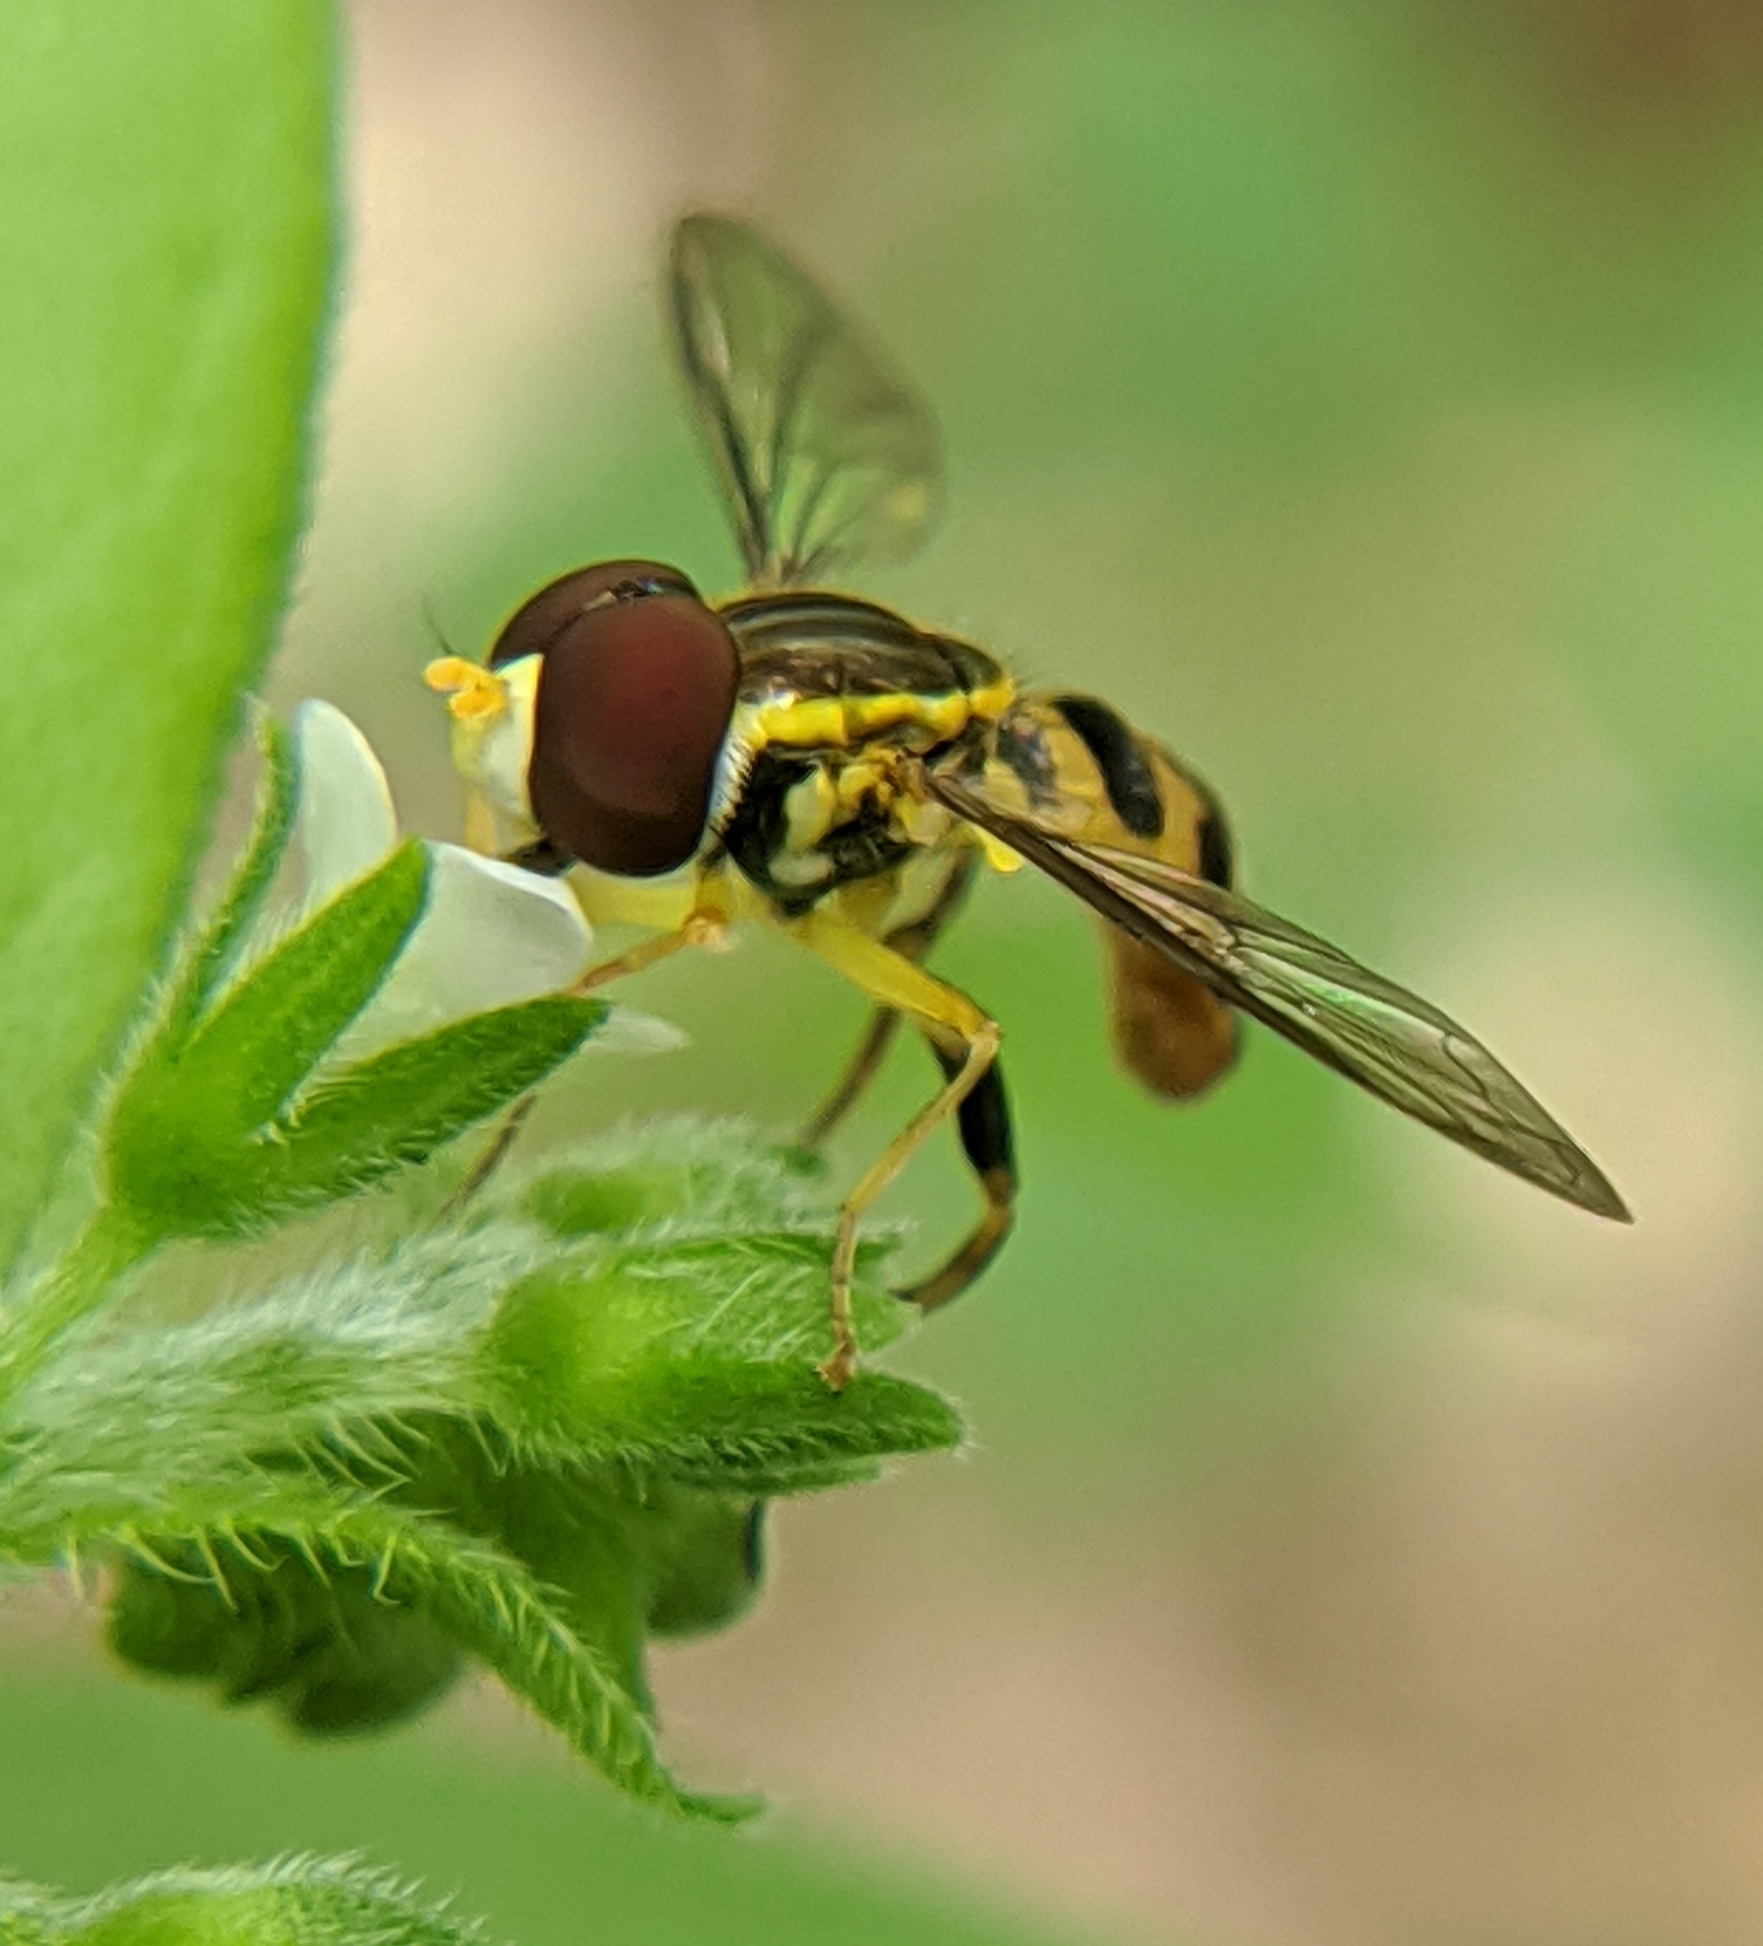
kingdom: Animalia
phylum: Arthropoda
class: Insecta
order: Diptera
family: Syrphidae
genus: Toxomerus
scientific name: Toxomerus geminatus
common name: Eastern calligrapher
